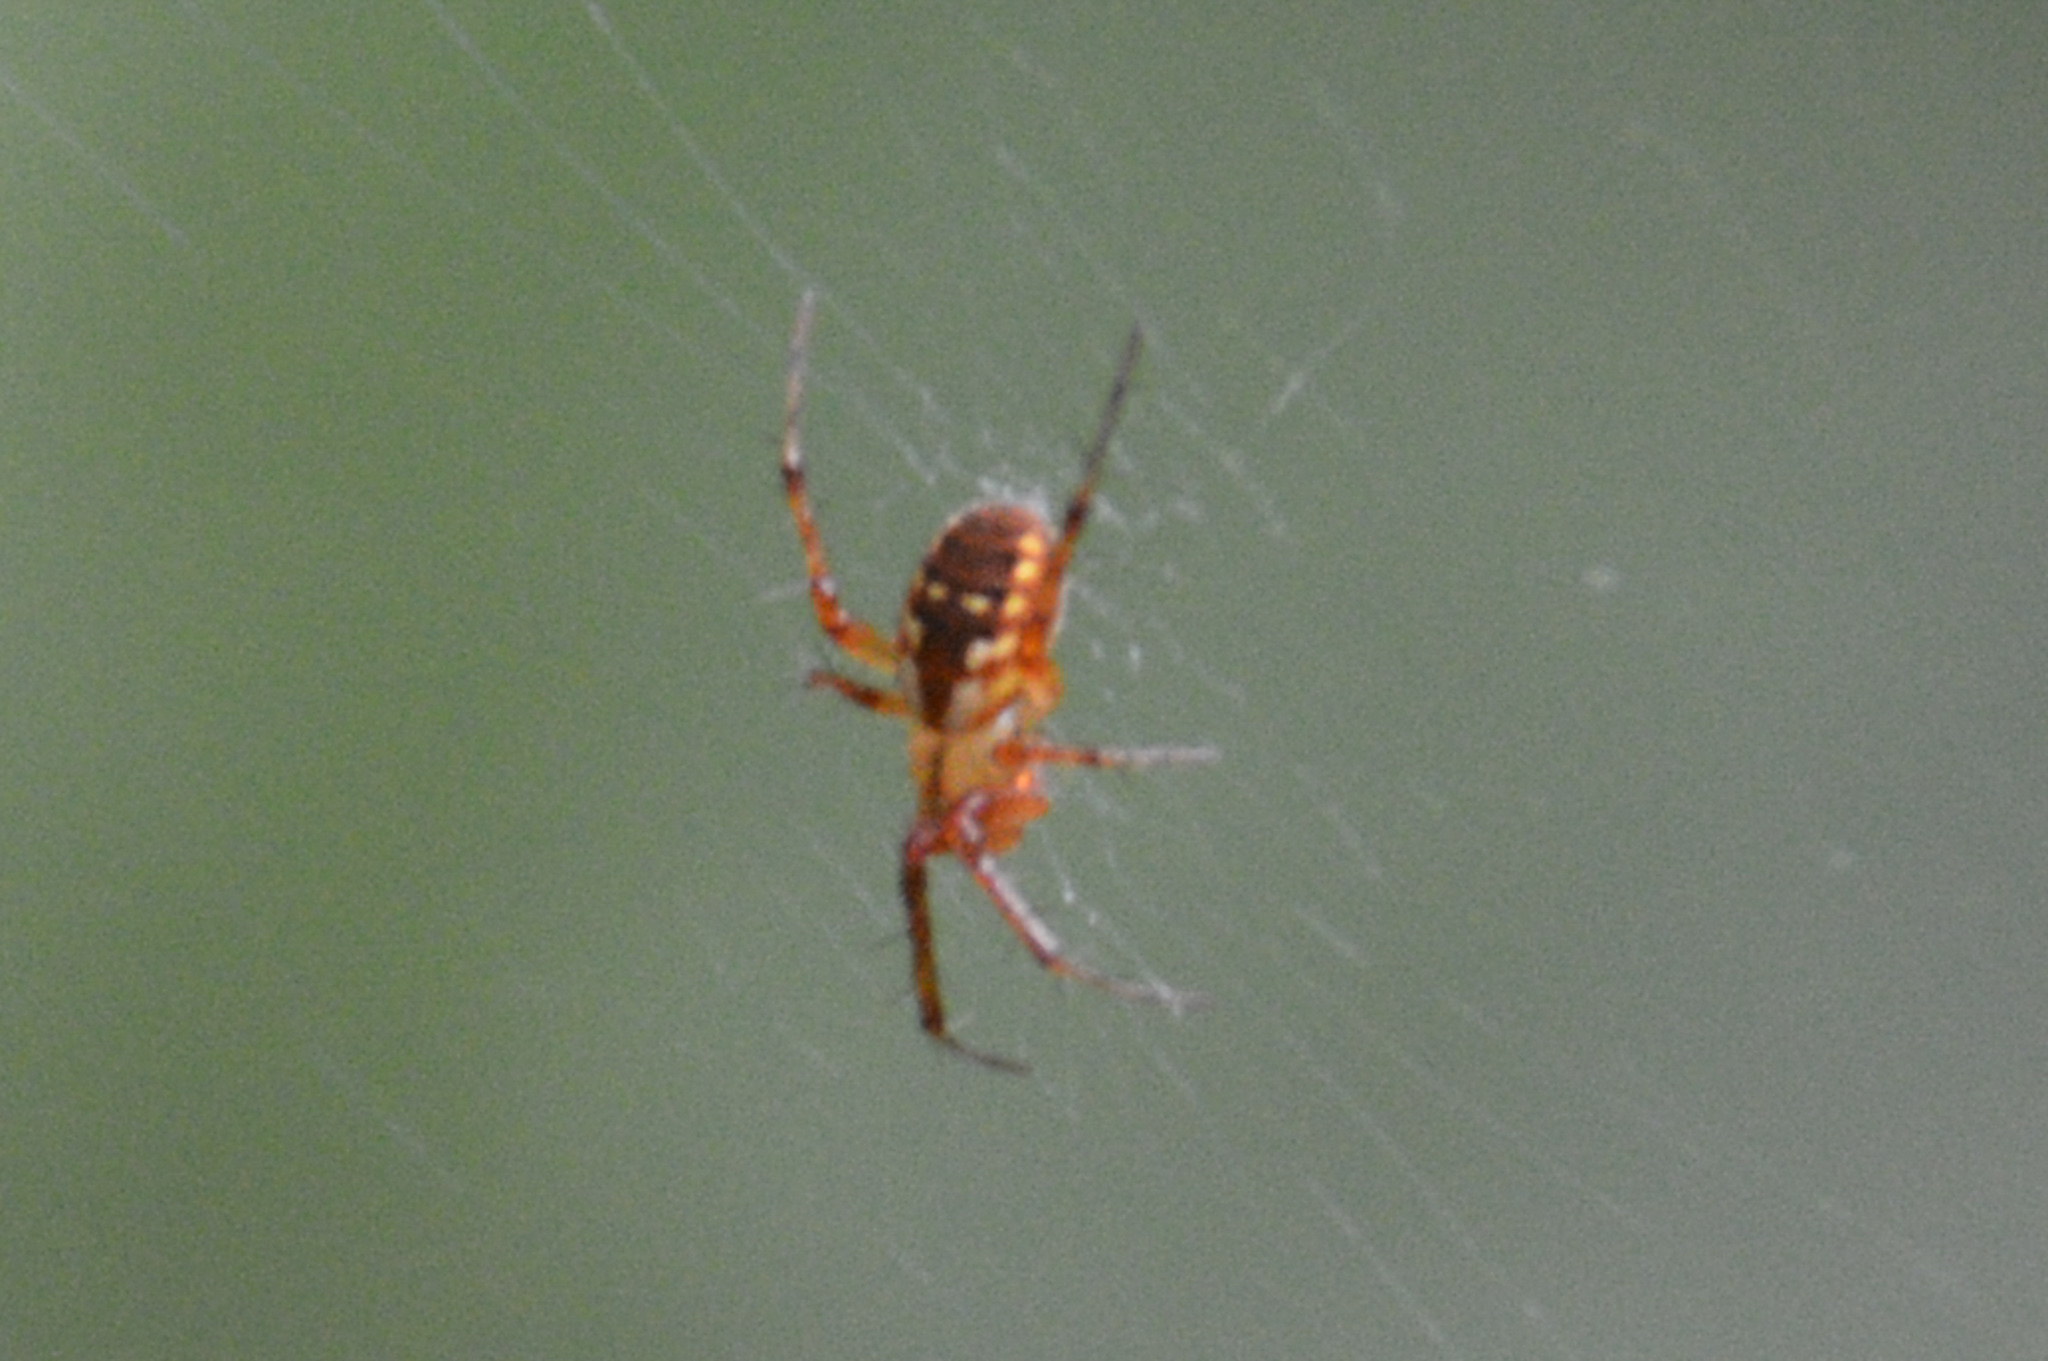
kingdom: Animalia
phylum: Arthropoda
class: Arachnida
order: Araneae
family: Araneidae
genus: Mangora
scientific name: Mangora placida
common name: Tuft-legged orbweaver
